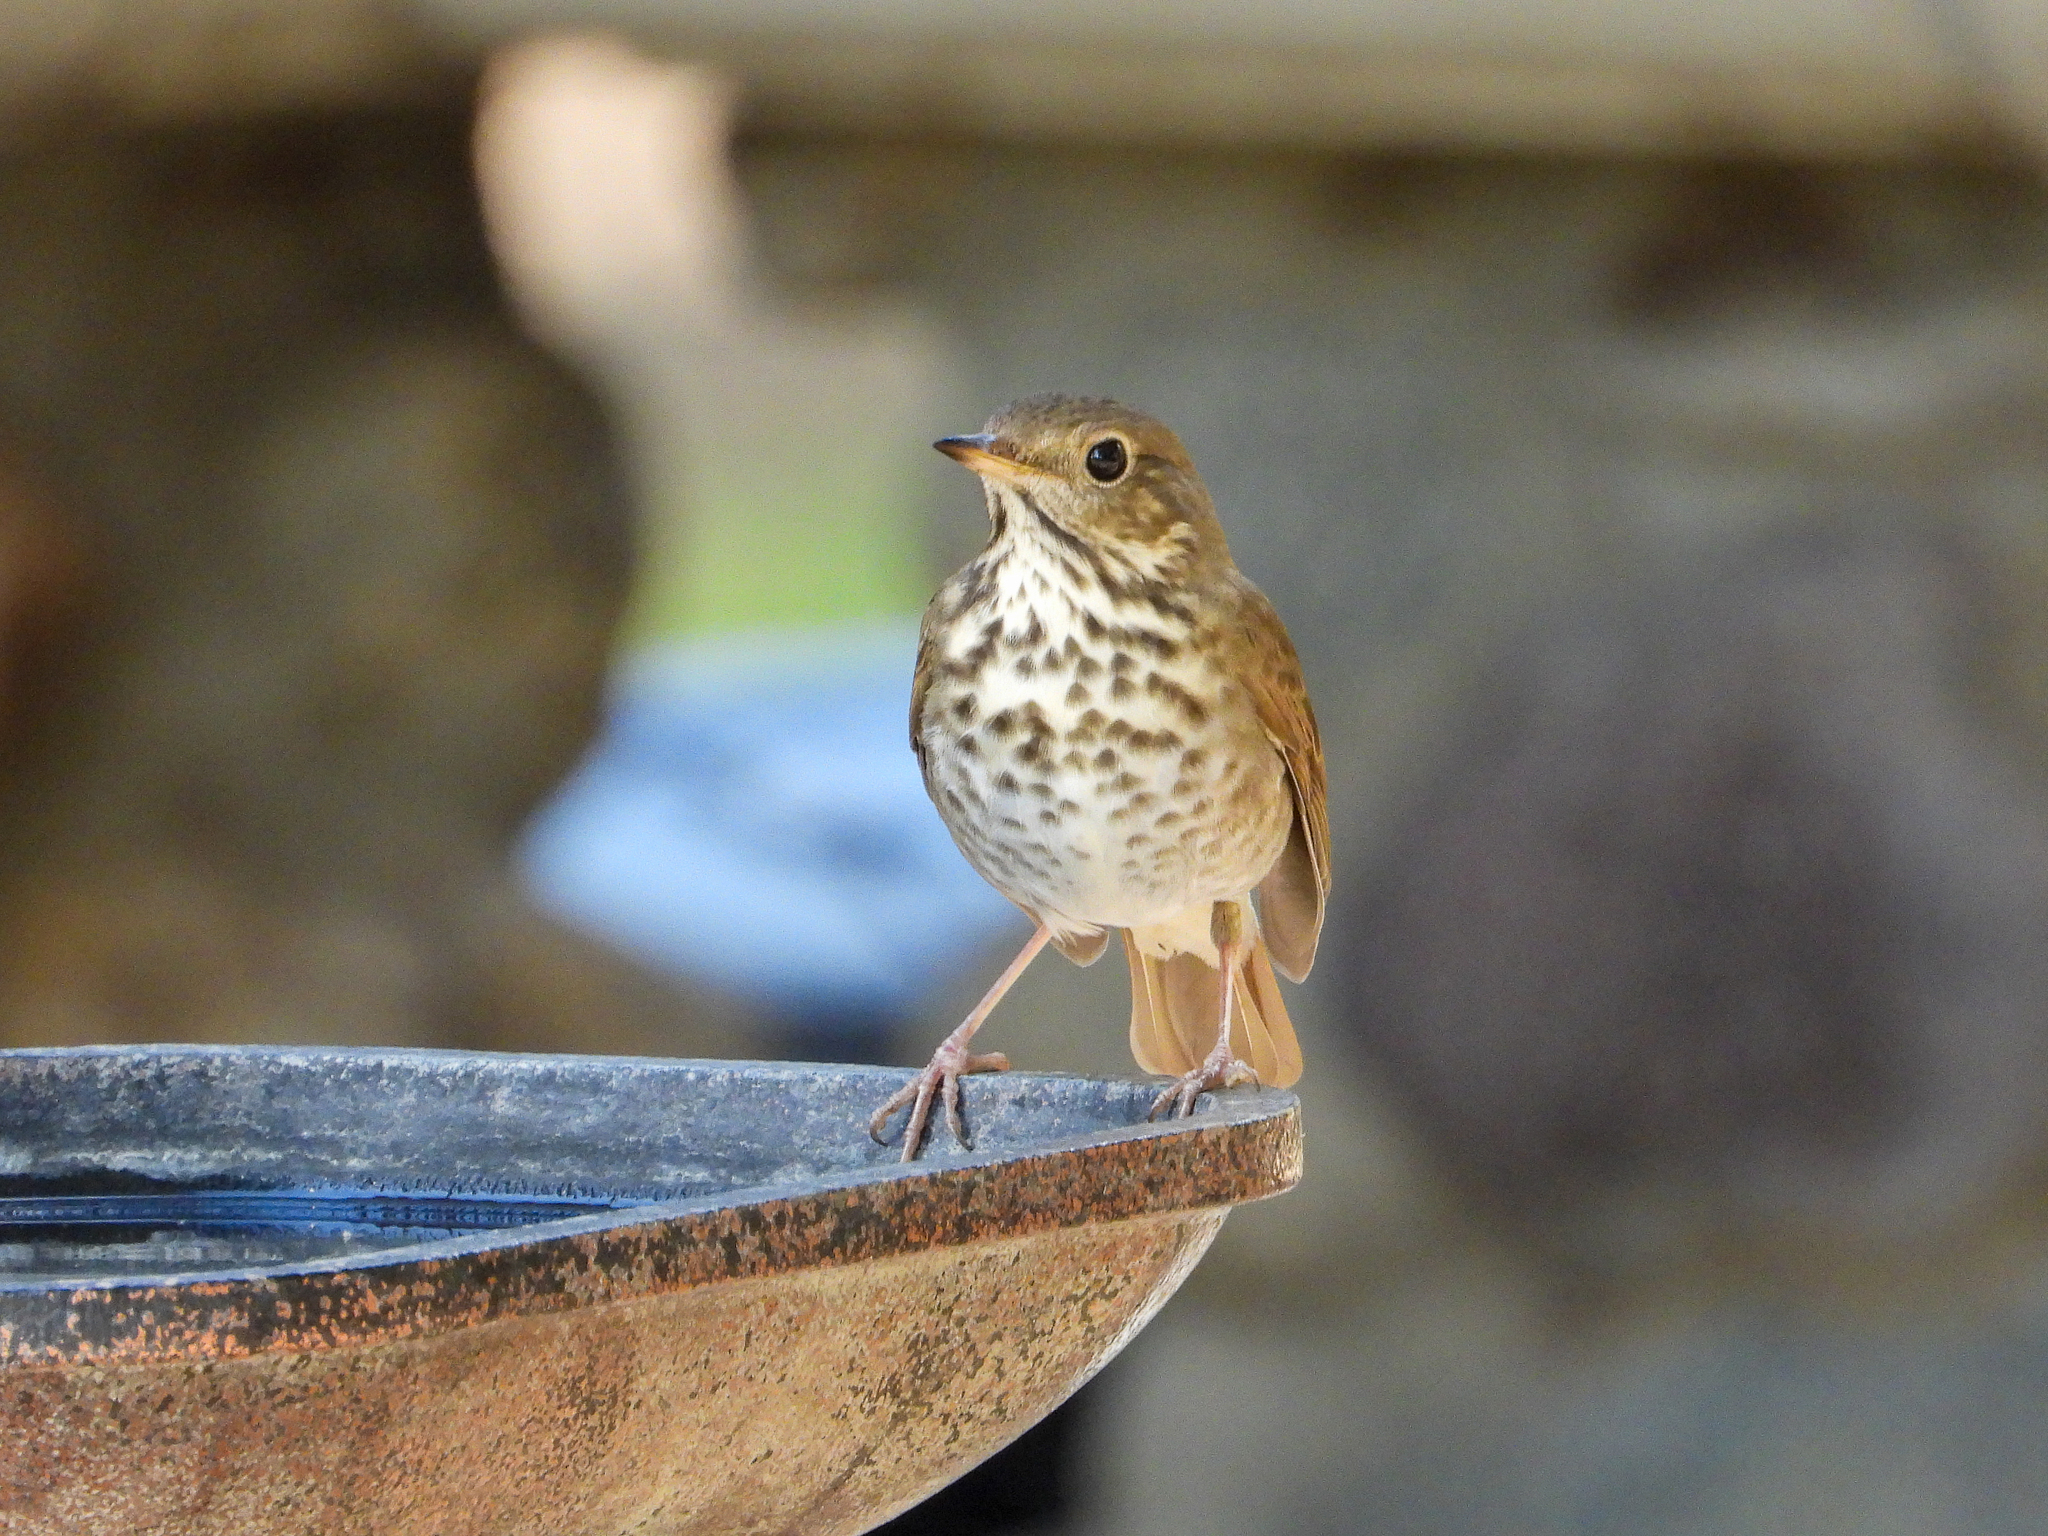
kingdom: Animalia
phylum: Chordata
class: Aves
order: Passeriformes
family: Turdidae
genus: Catharus
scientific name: Catharus guttatus
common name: Hermit thrush
